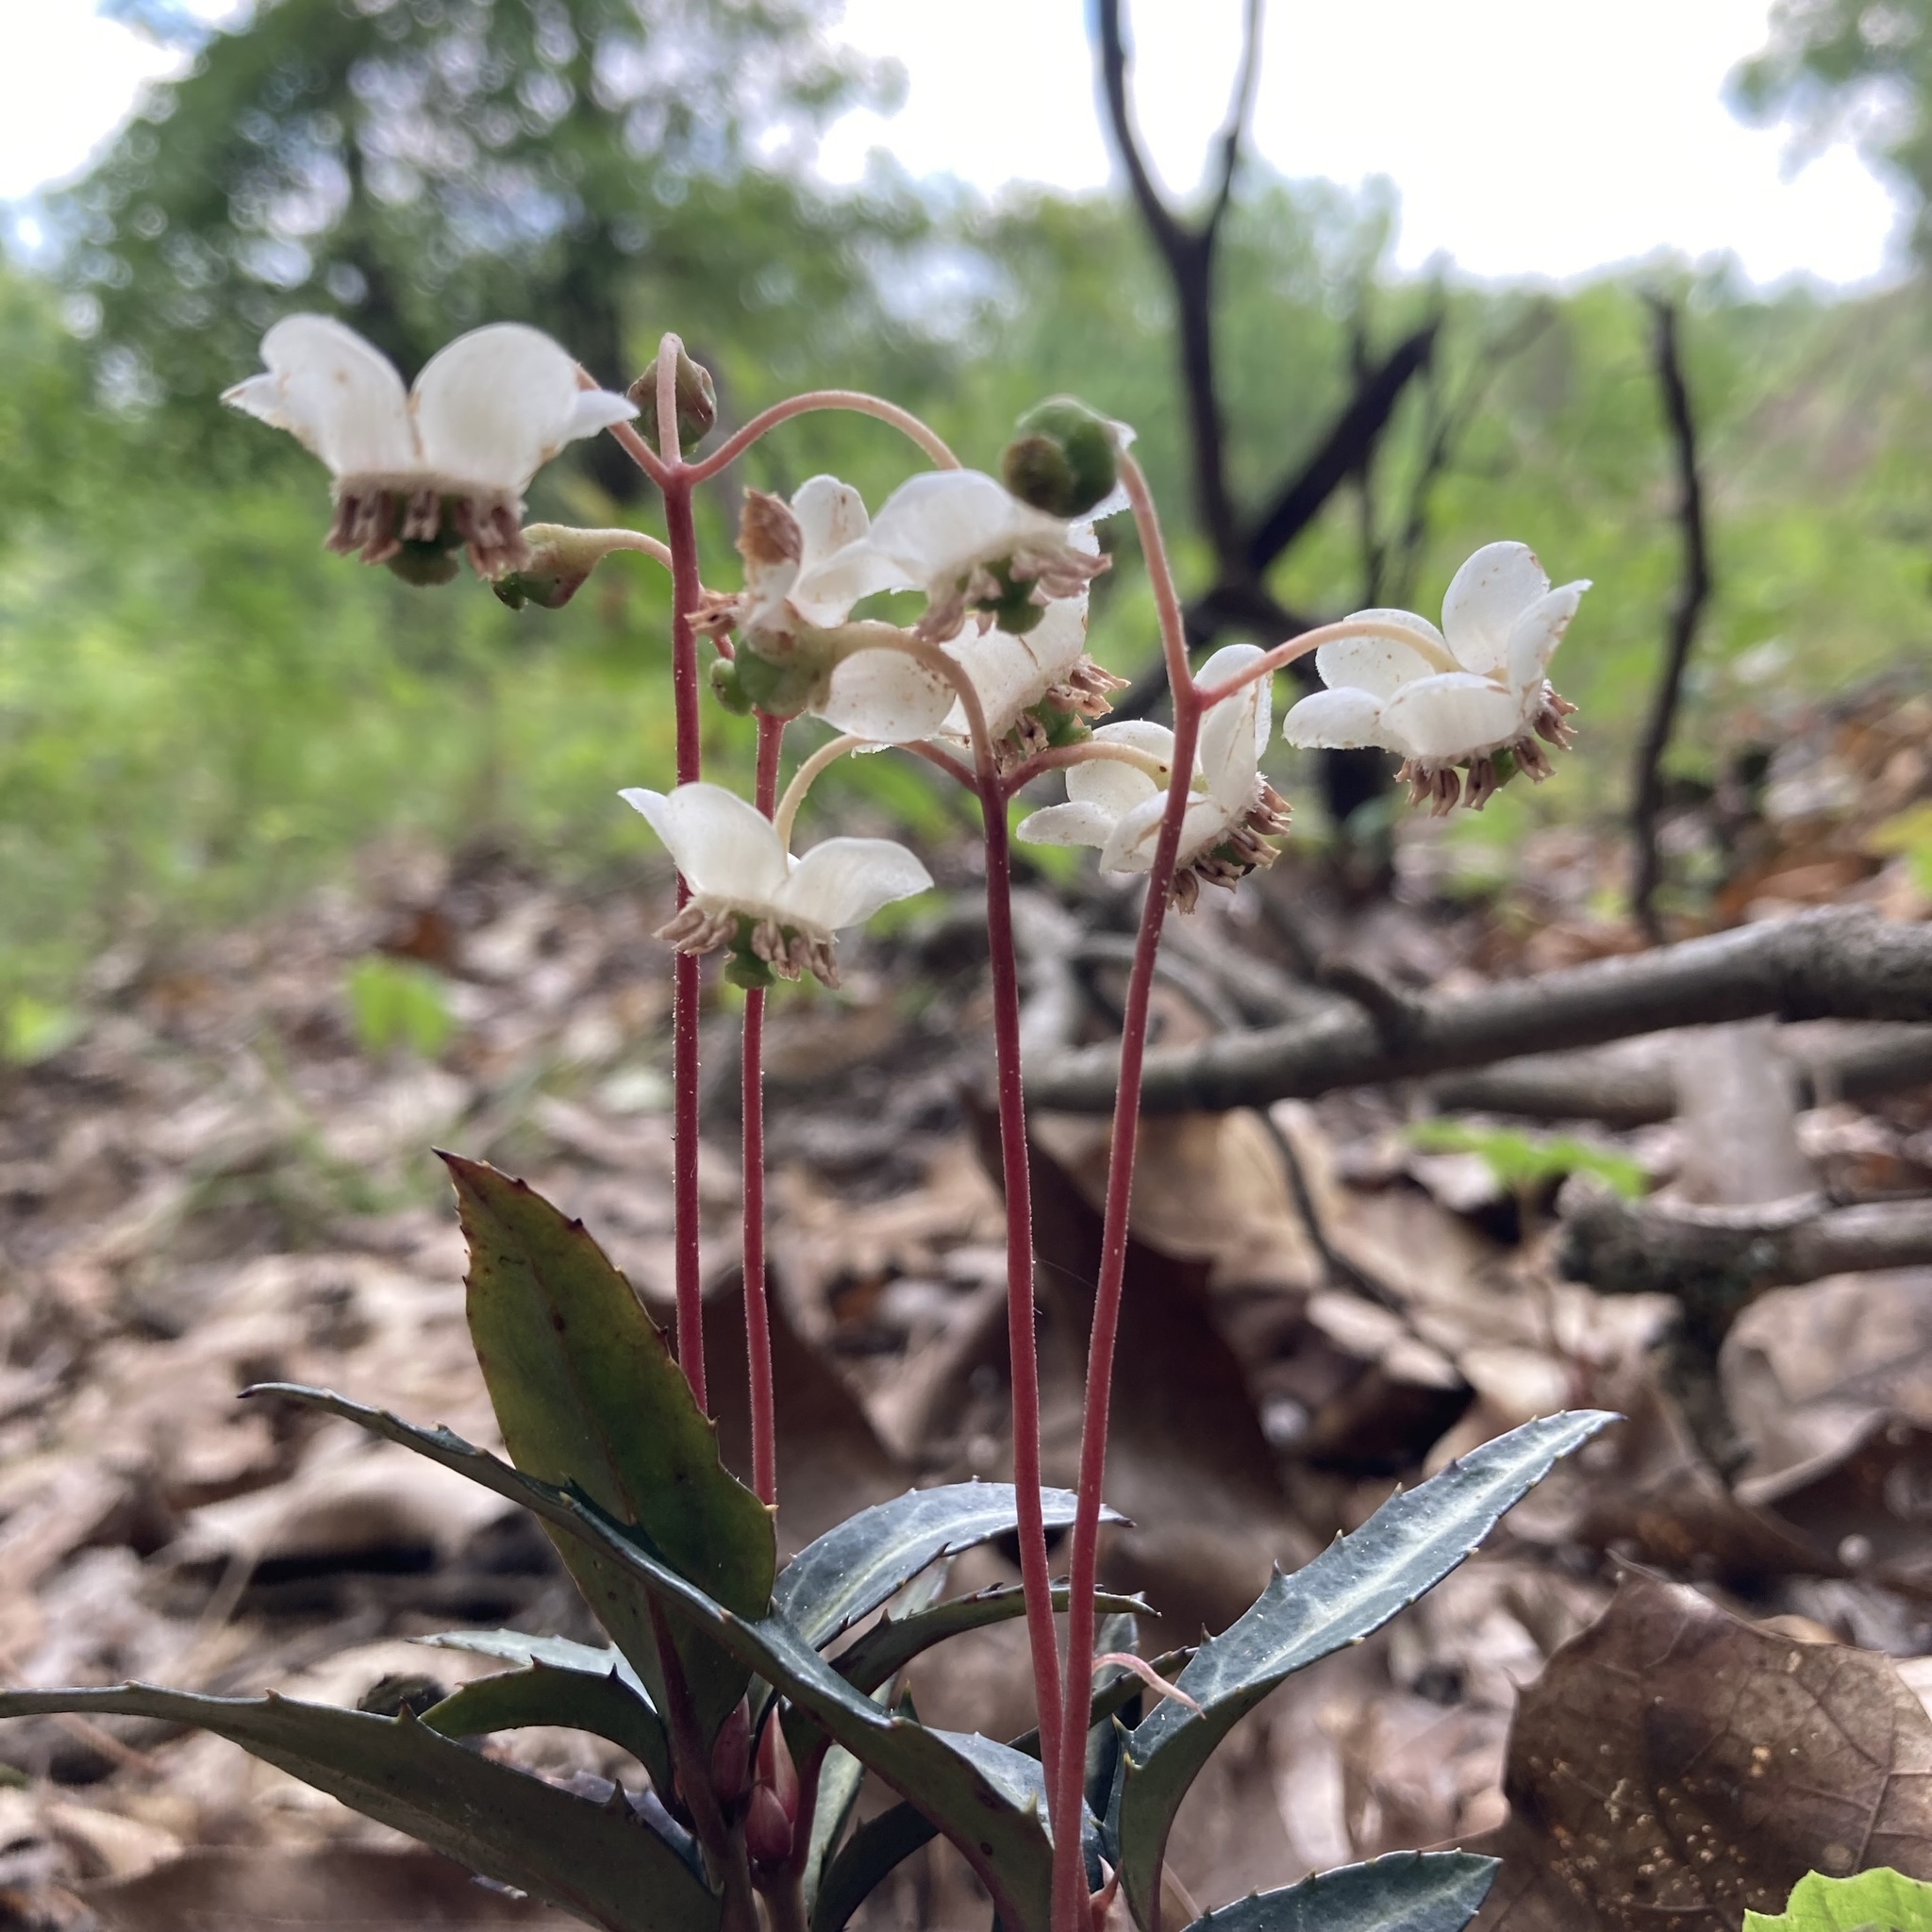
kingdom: Plantae
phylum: Tracheophyta
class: Magnoliopsida
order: Ericales
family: Ericaceae
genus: Chimaphila
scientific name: Chimaphila maculata
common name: Spotted pipsissewa
